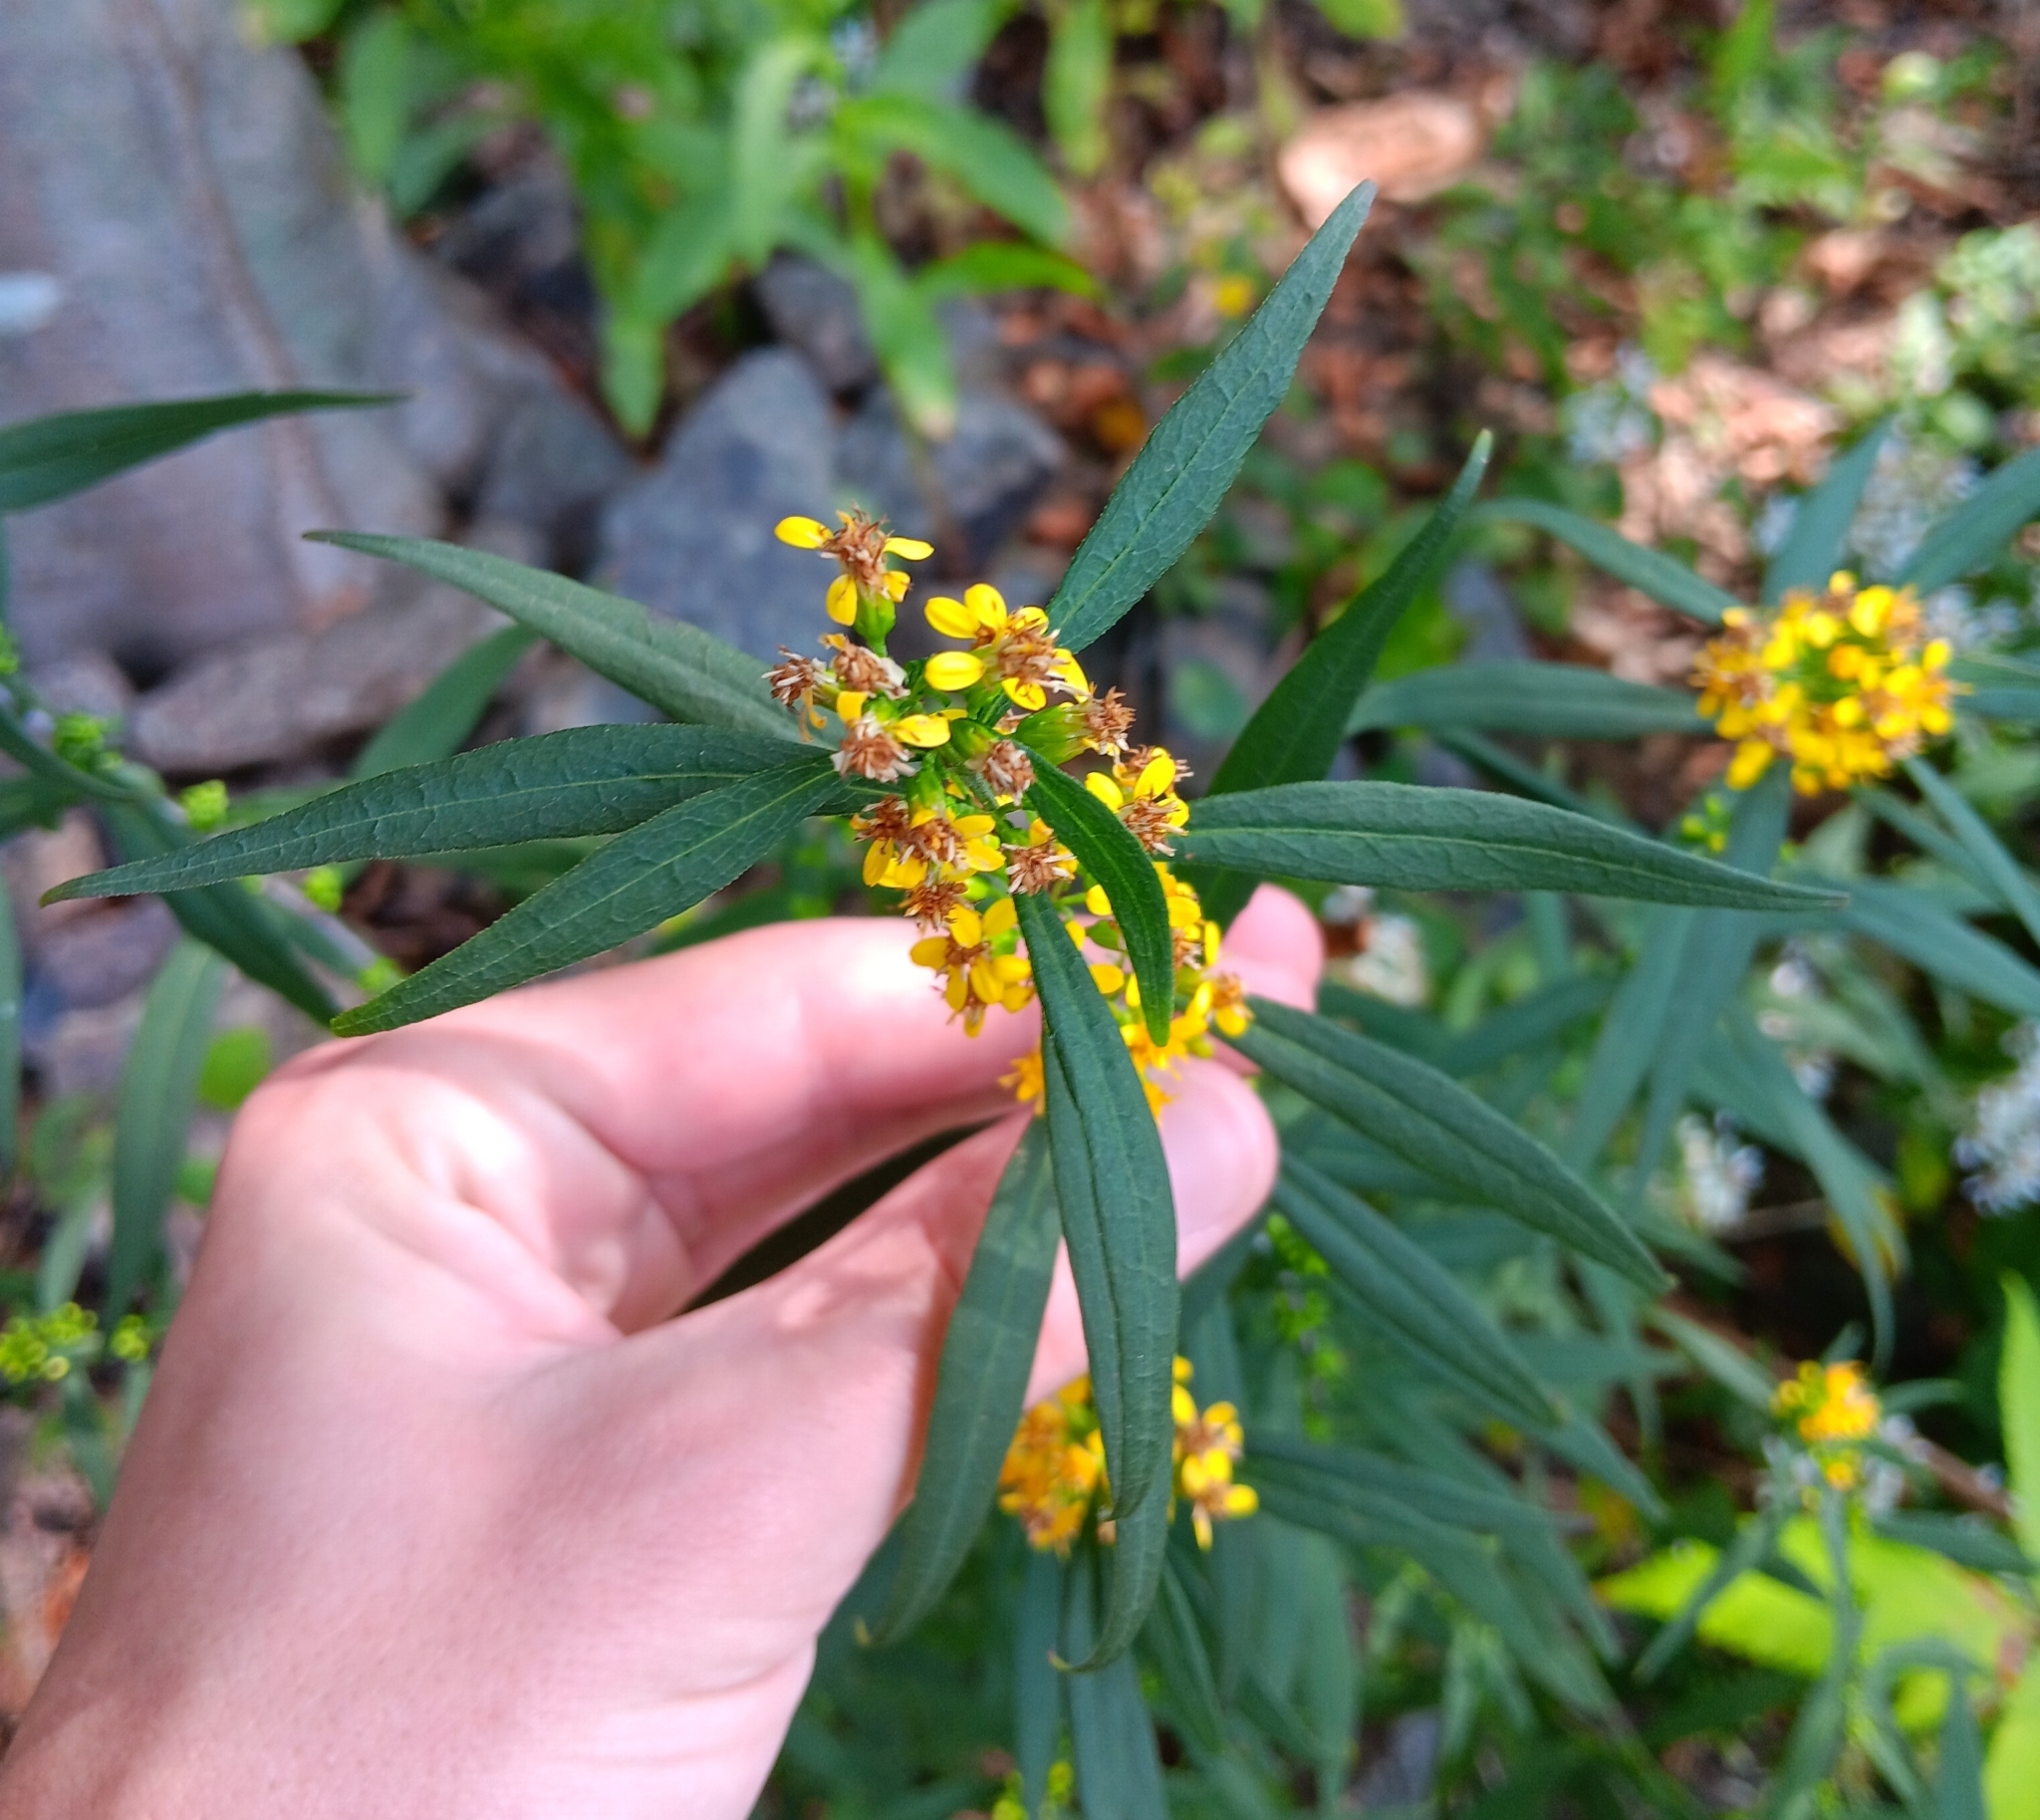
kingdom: Plantae
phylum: Tracheophyta
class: Magnoliopsida
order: Asterales
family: Asteraceae
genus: Solidago
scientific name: Solidago caesia
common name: Woodland goldenrod
